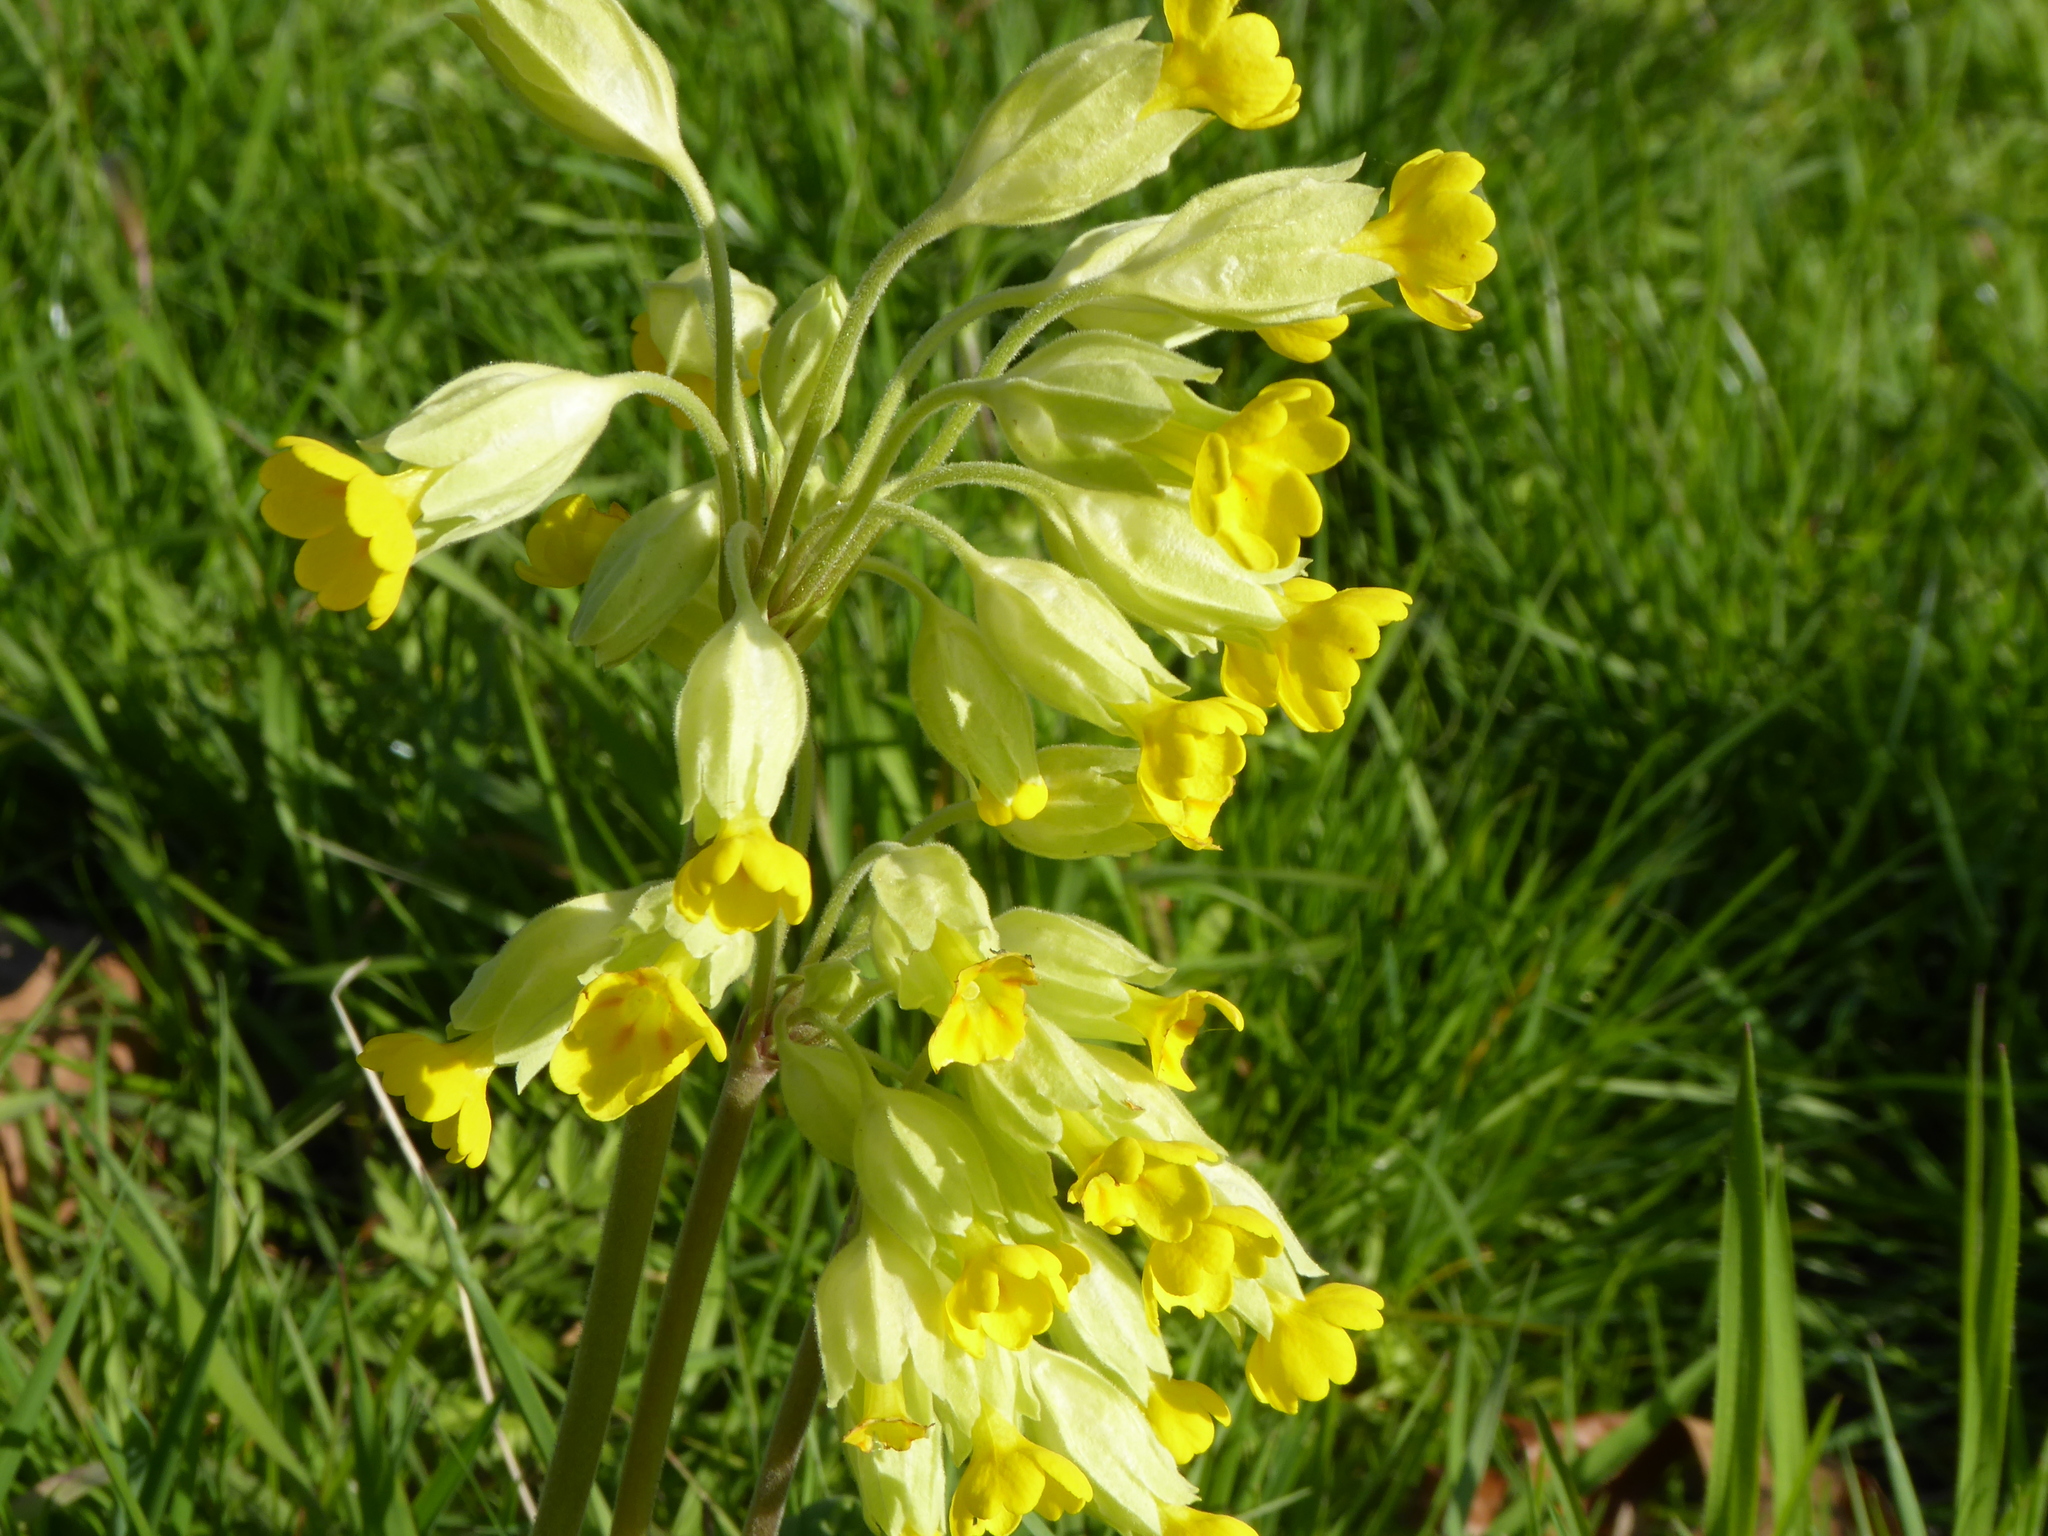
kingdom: Plantae
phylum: Tracheophyta
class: Magnoliopsida
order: Ericales
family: Primulaceae
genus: Primula
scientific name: Primula veris
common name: Cowslip
